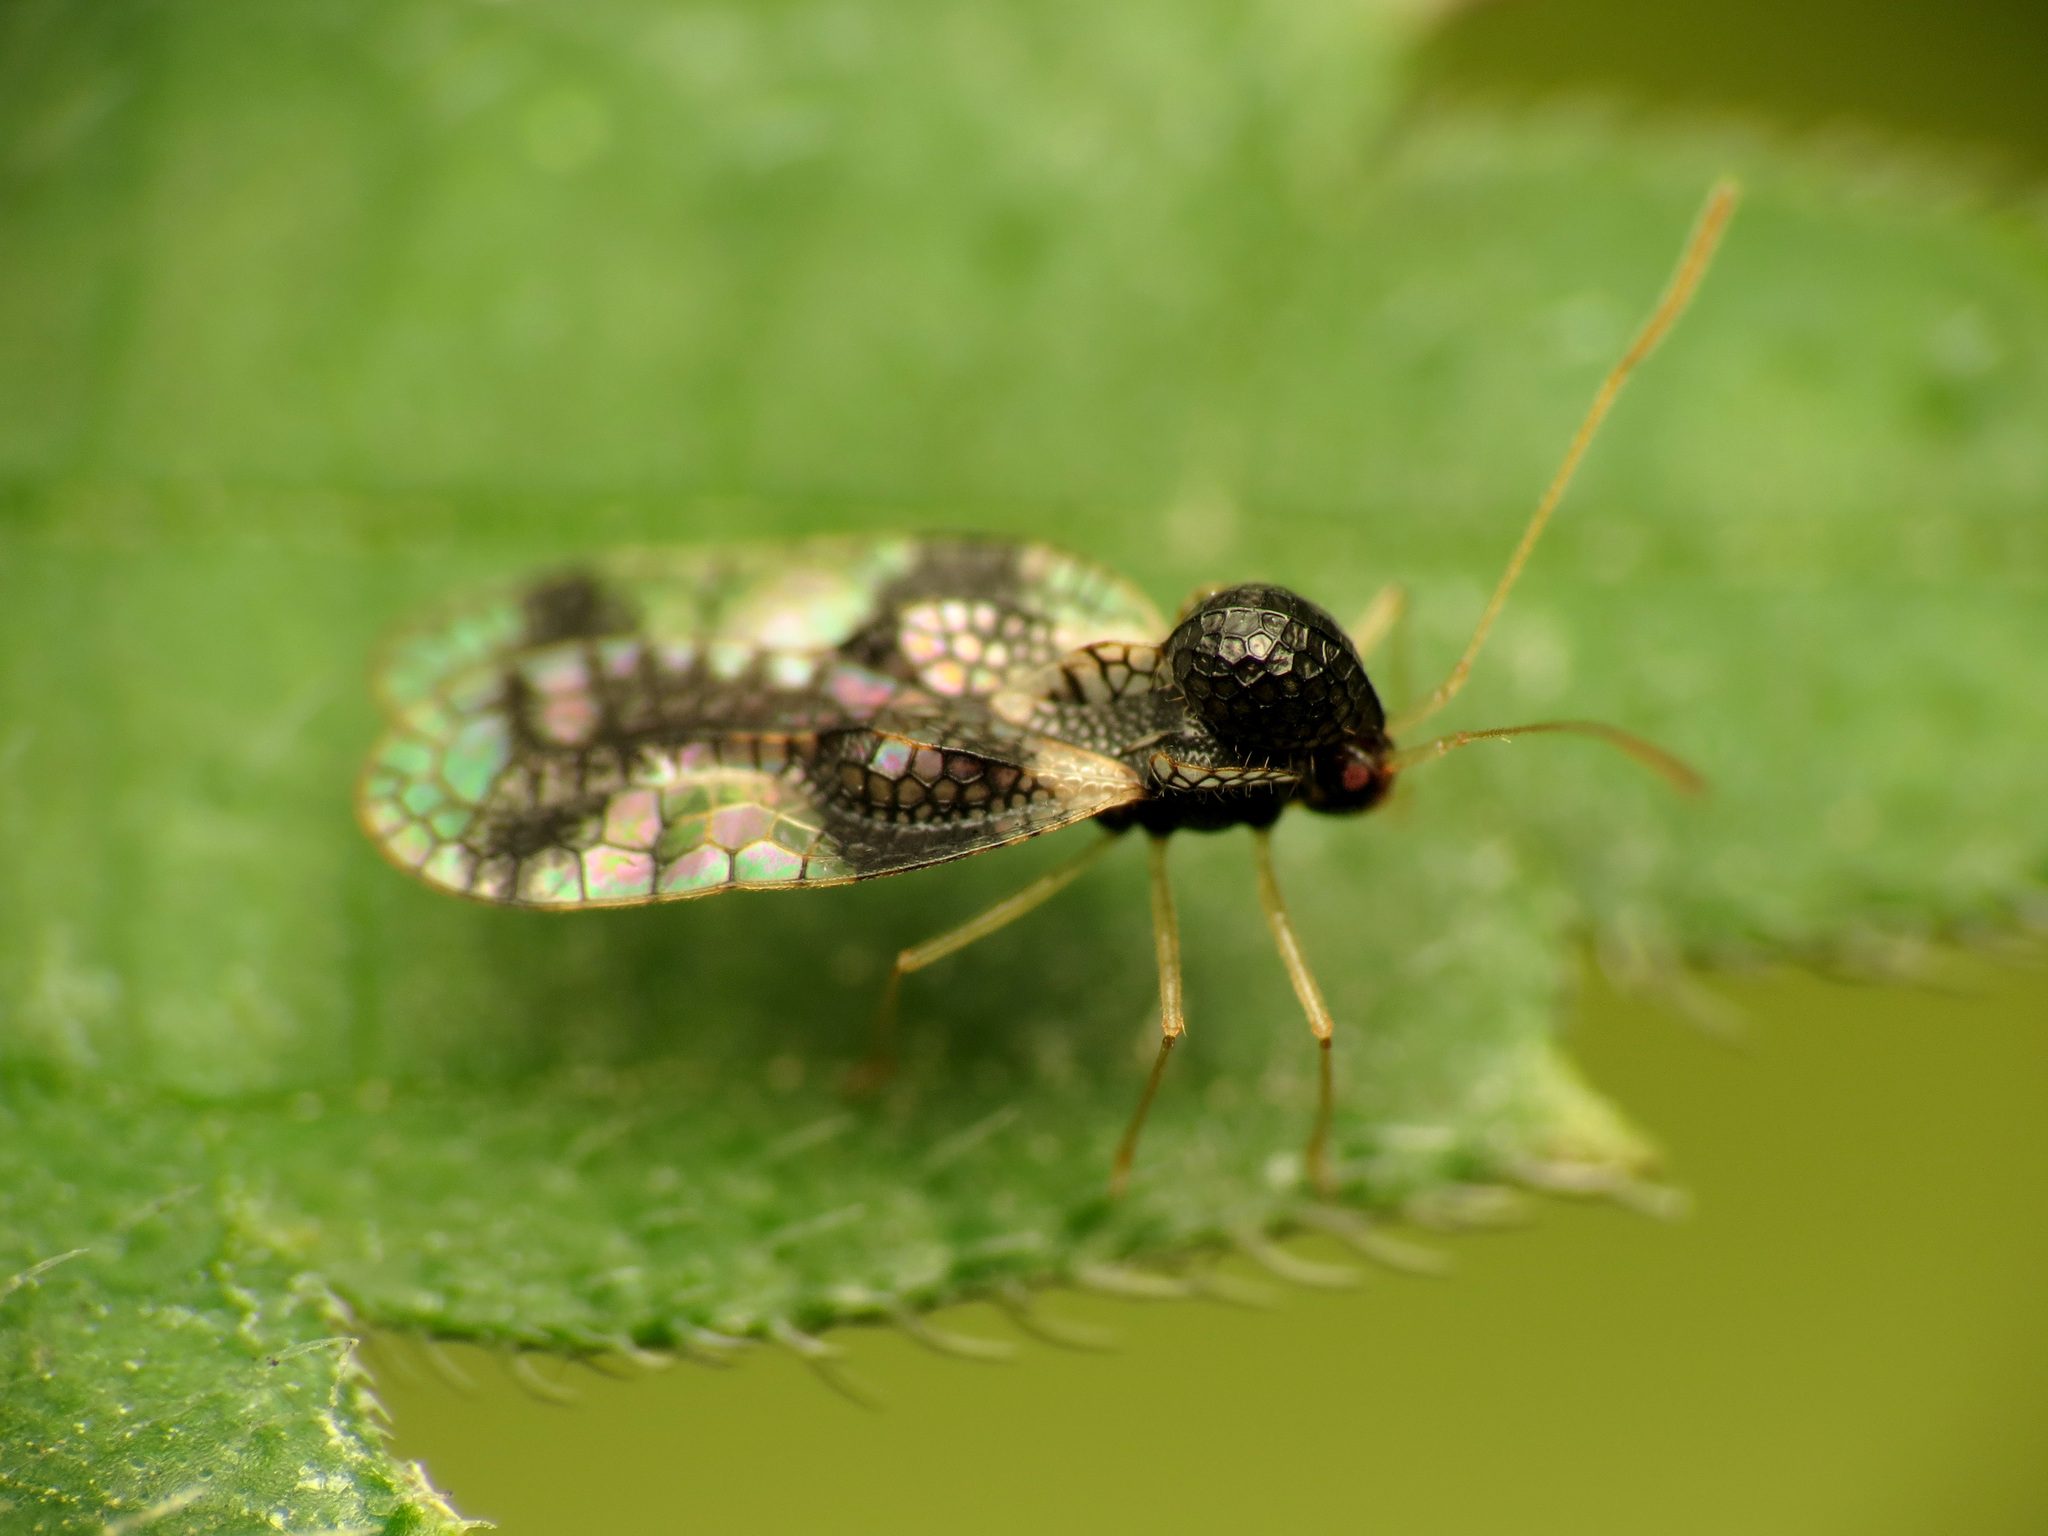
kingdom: Animalia
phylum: Arthropoda
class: Insecta
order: Hemiptera
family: Tingidae
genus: Stephanitis
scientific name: Stephanitis takeyai
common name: Andromeda lacebug
